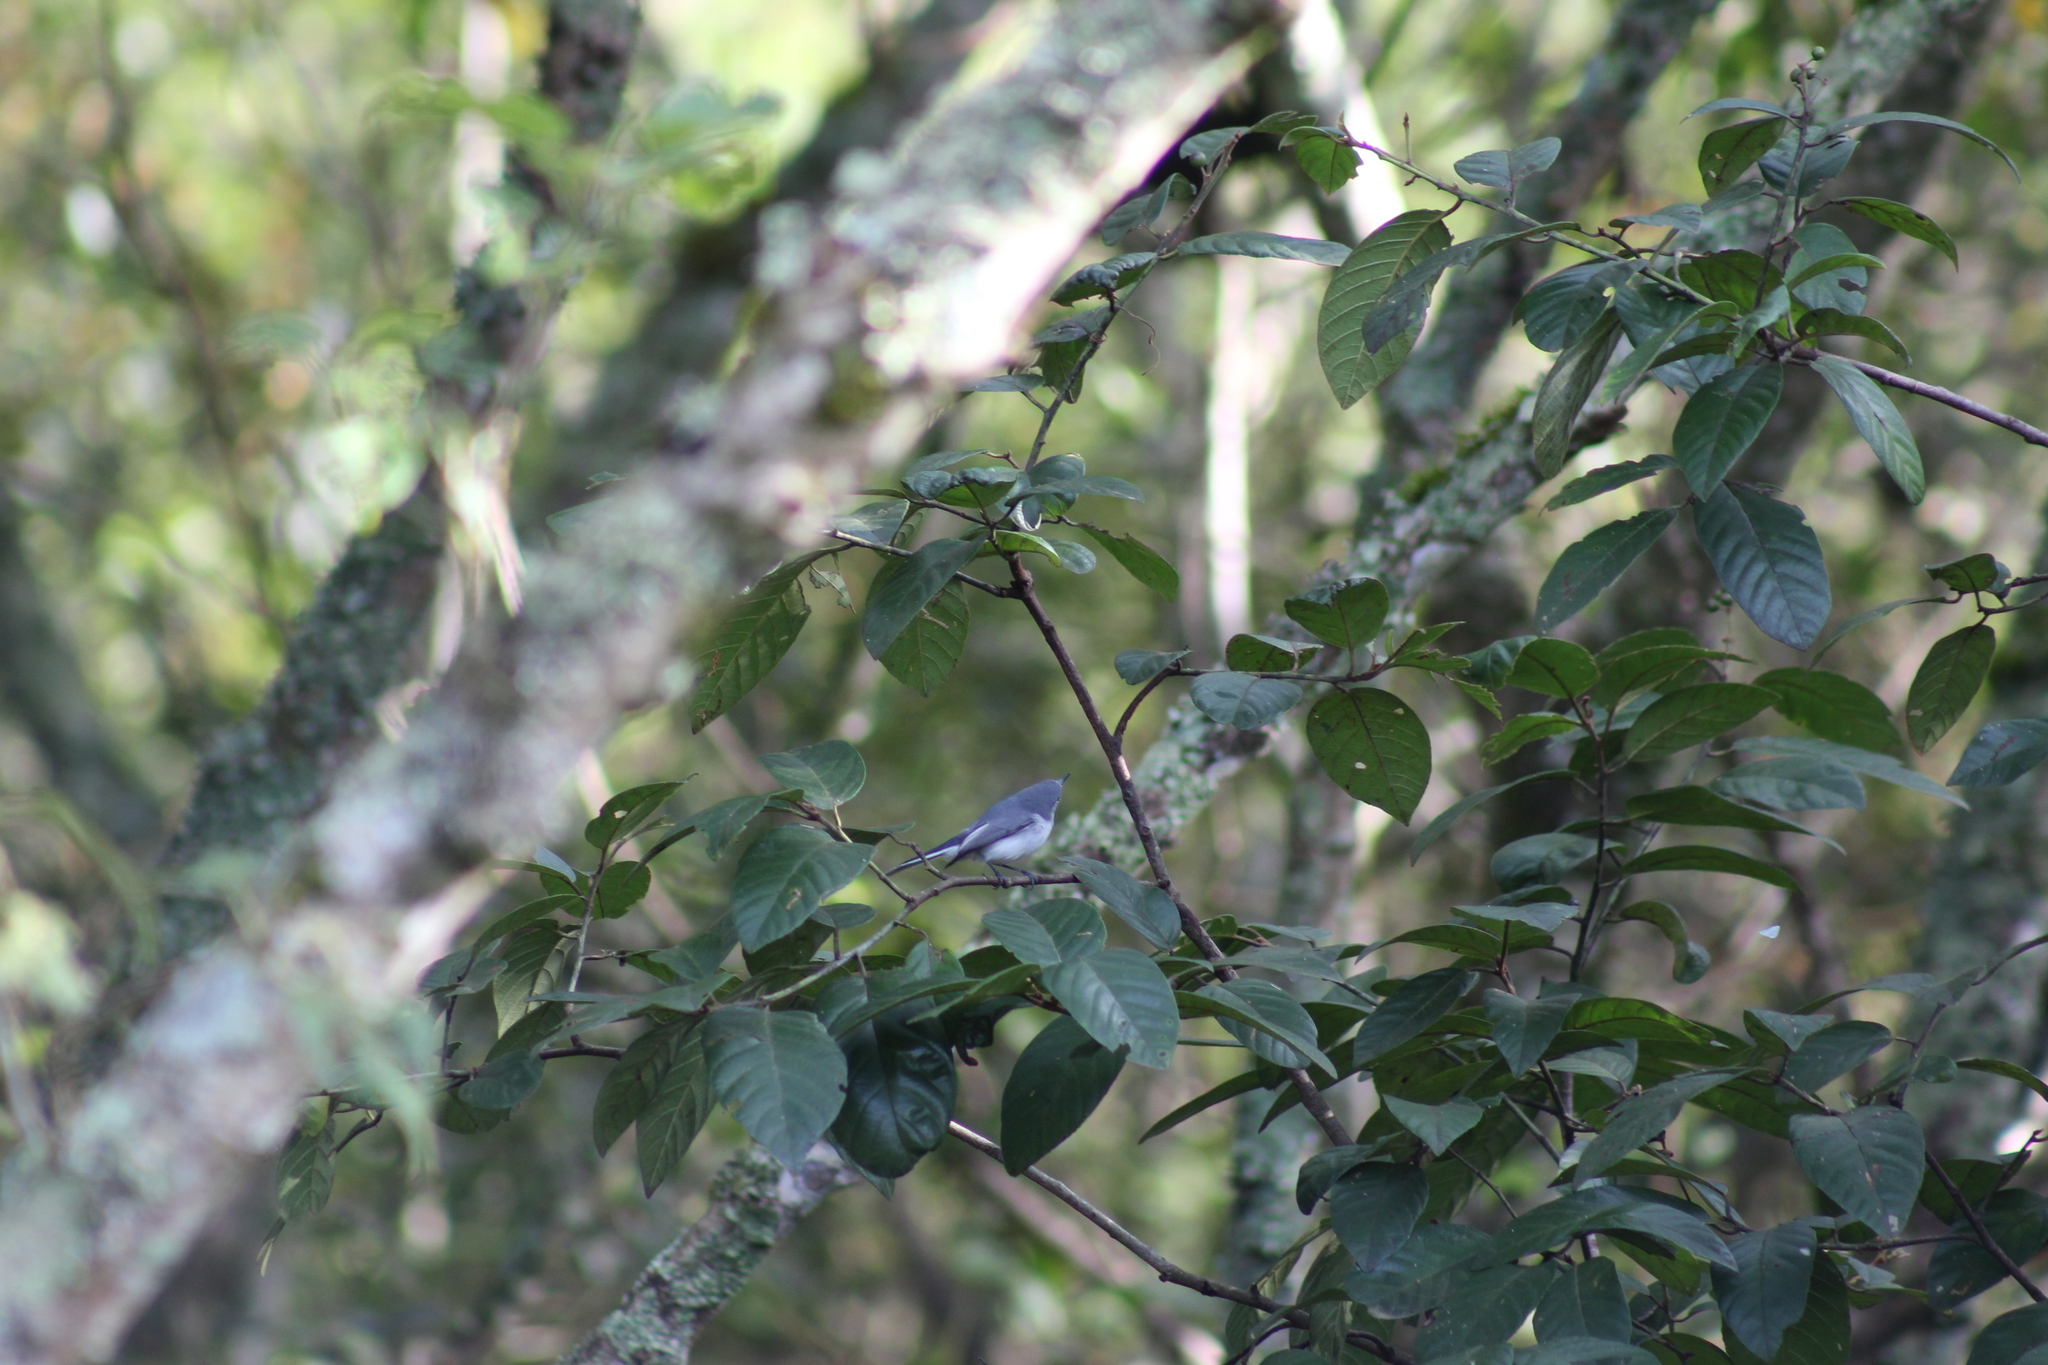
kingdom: Animalia
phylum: Chordata
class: Aves
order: Passeriformes
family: Polioptilidae
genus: Polioptila
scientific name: Polioptila caerulea
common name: Blue-gray gnatcatcher
